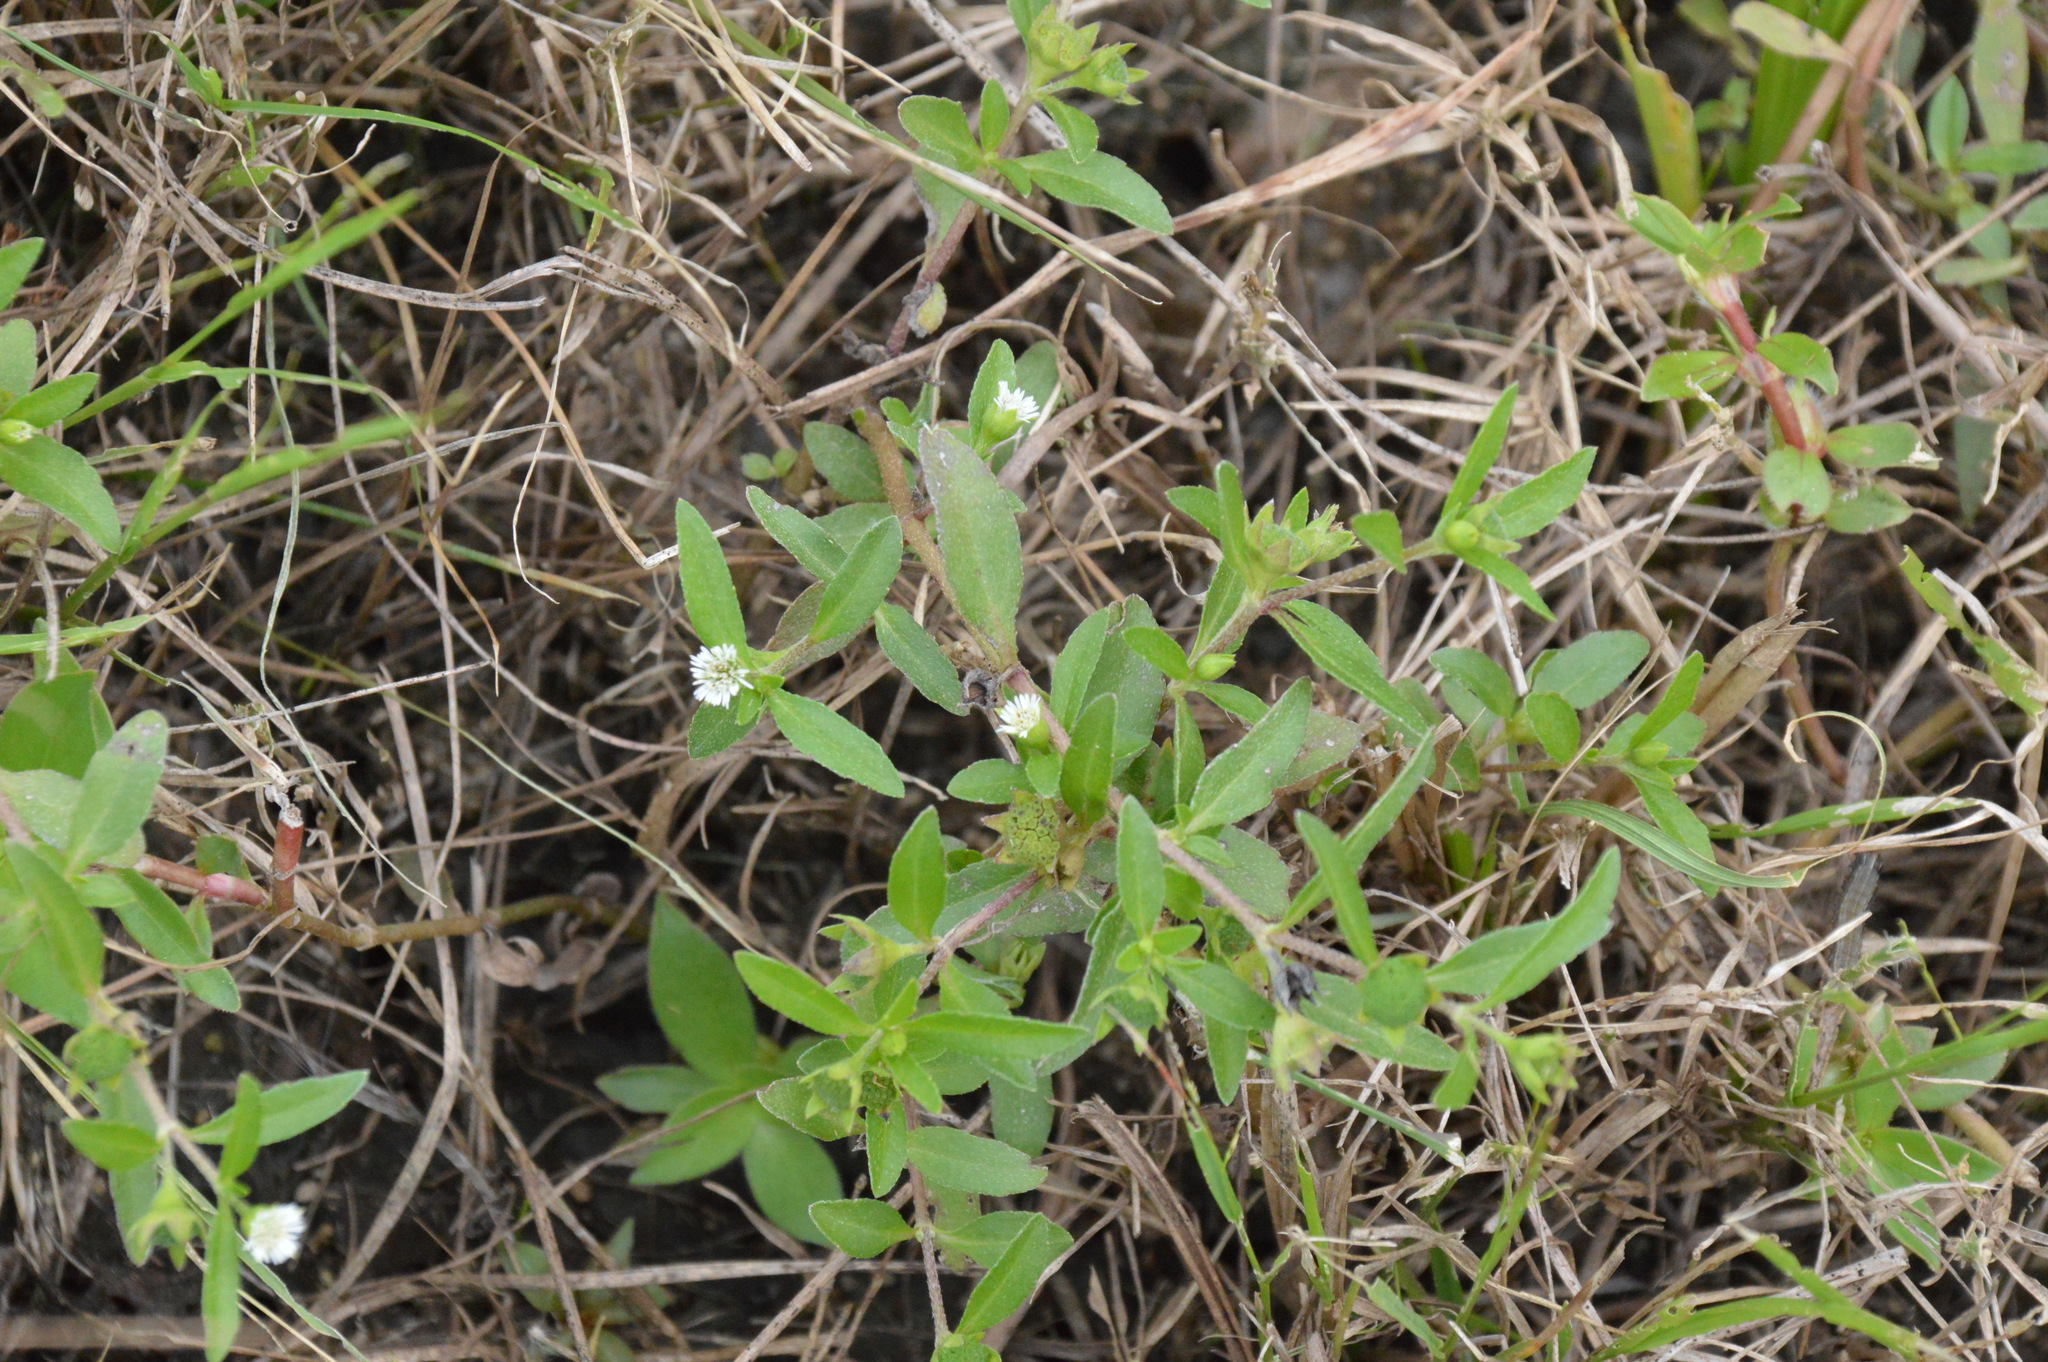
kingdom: Plantae
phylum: Tracheophyta
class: Magnoliopsida
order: Asterales
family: Asteraceae
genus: Eclipta
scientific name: Eclipta prostrata
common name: False daisy
